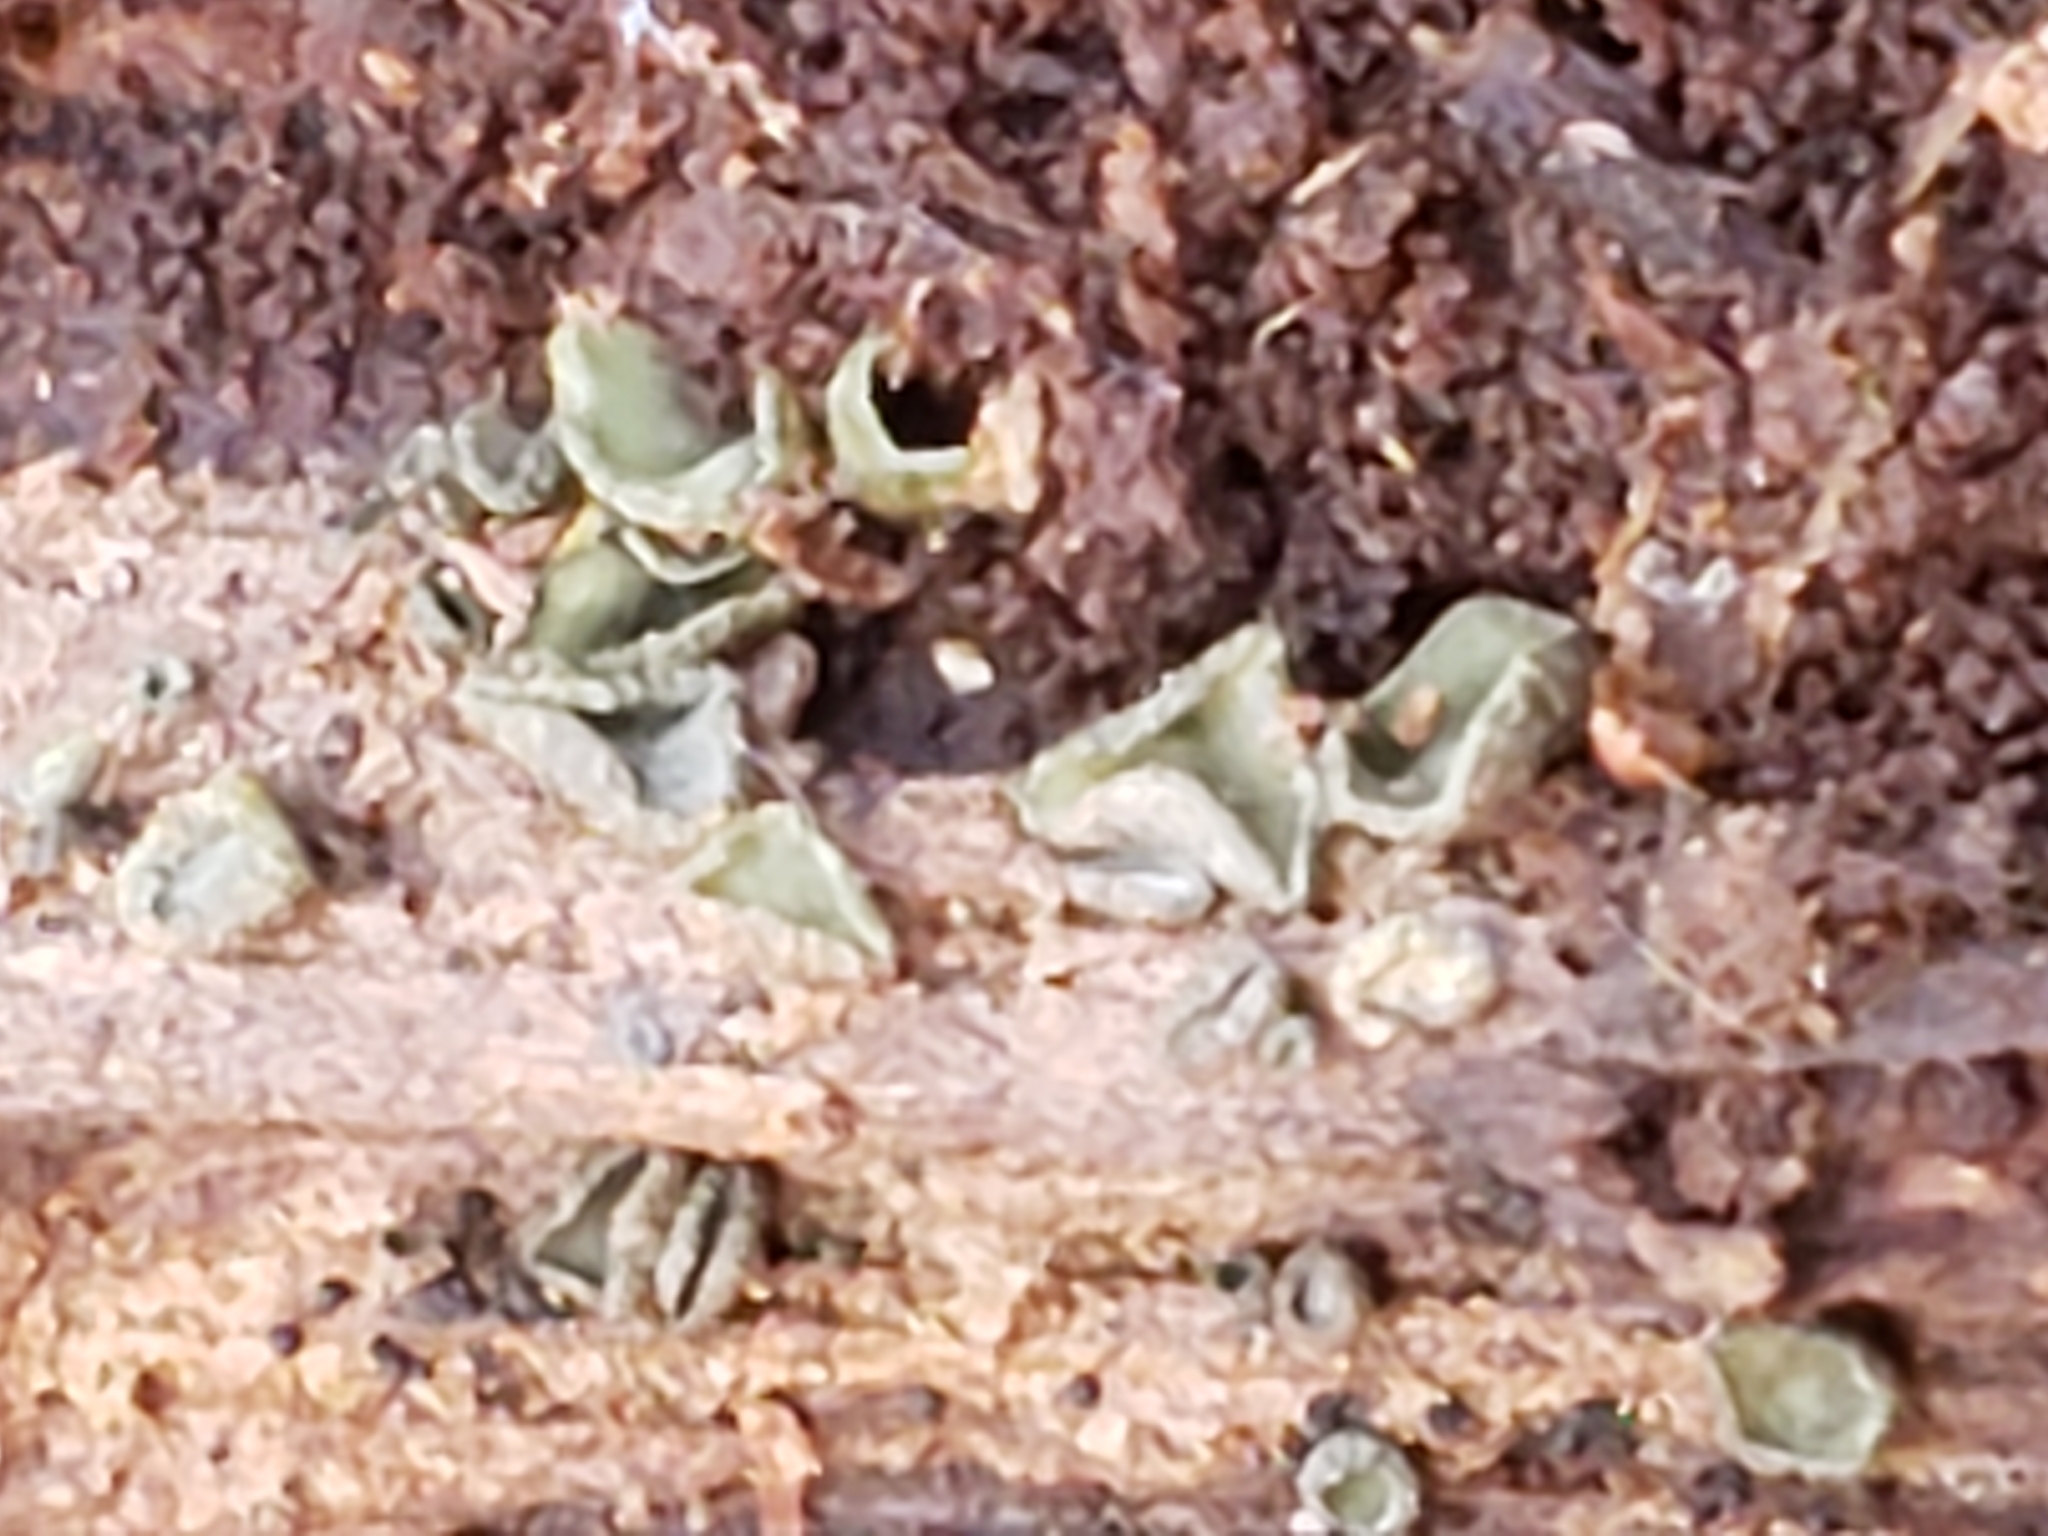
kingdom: Fungi
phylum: Ascomycota
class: Leotiomycetes
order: Helotiales
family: Chlorospleniaceae
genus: Chlorosplenium
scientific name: Chlorosplenium chlora
